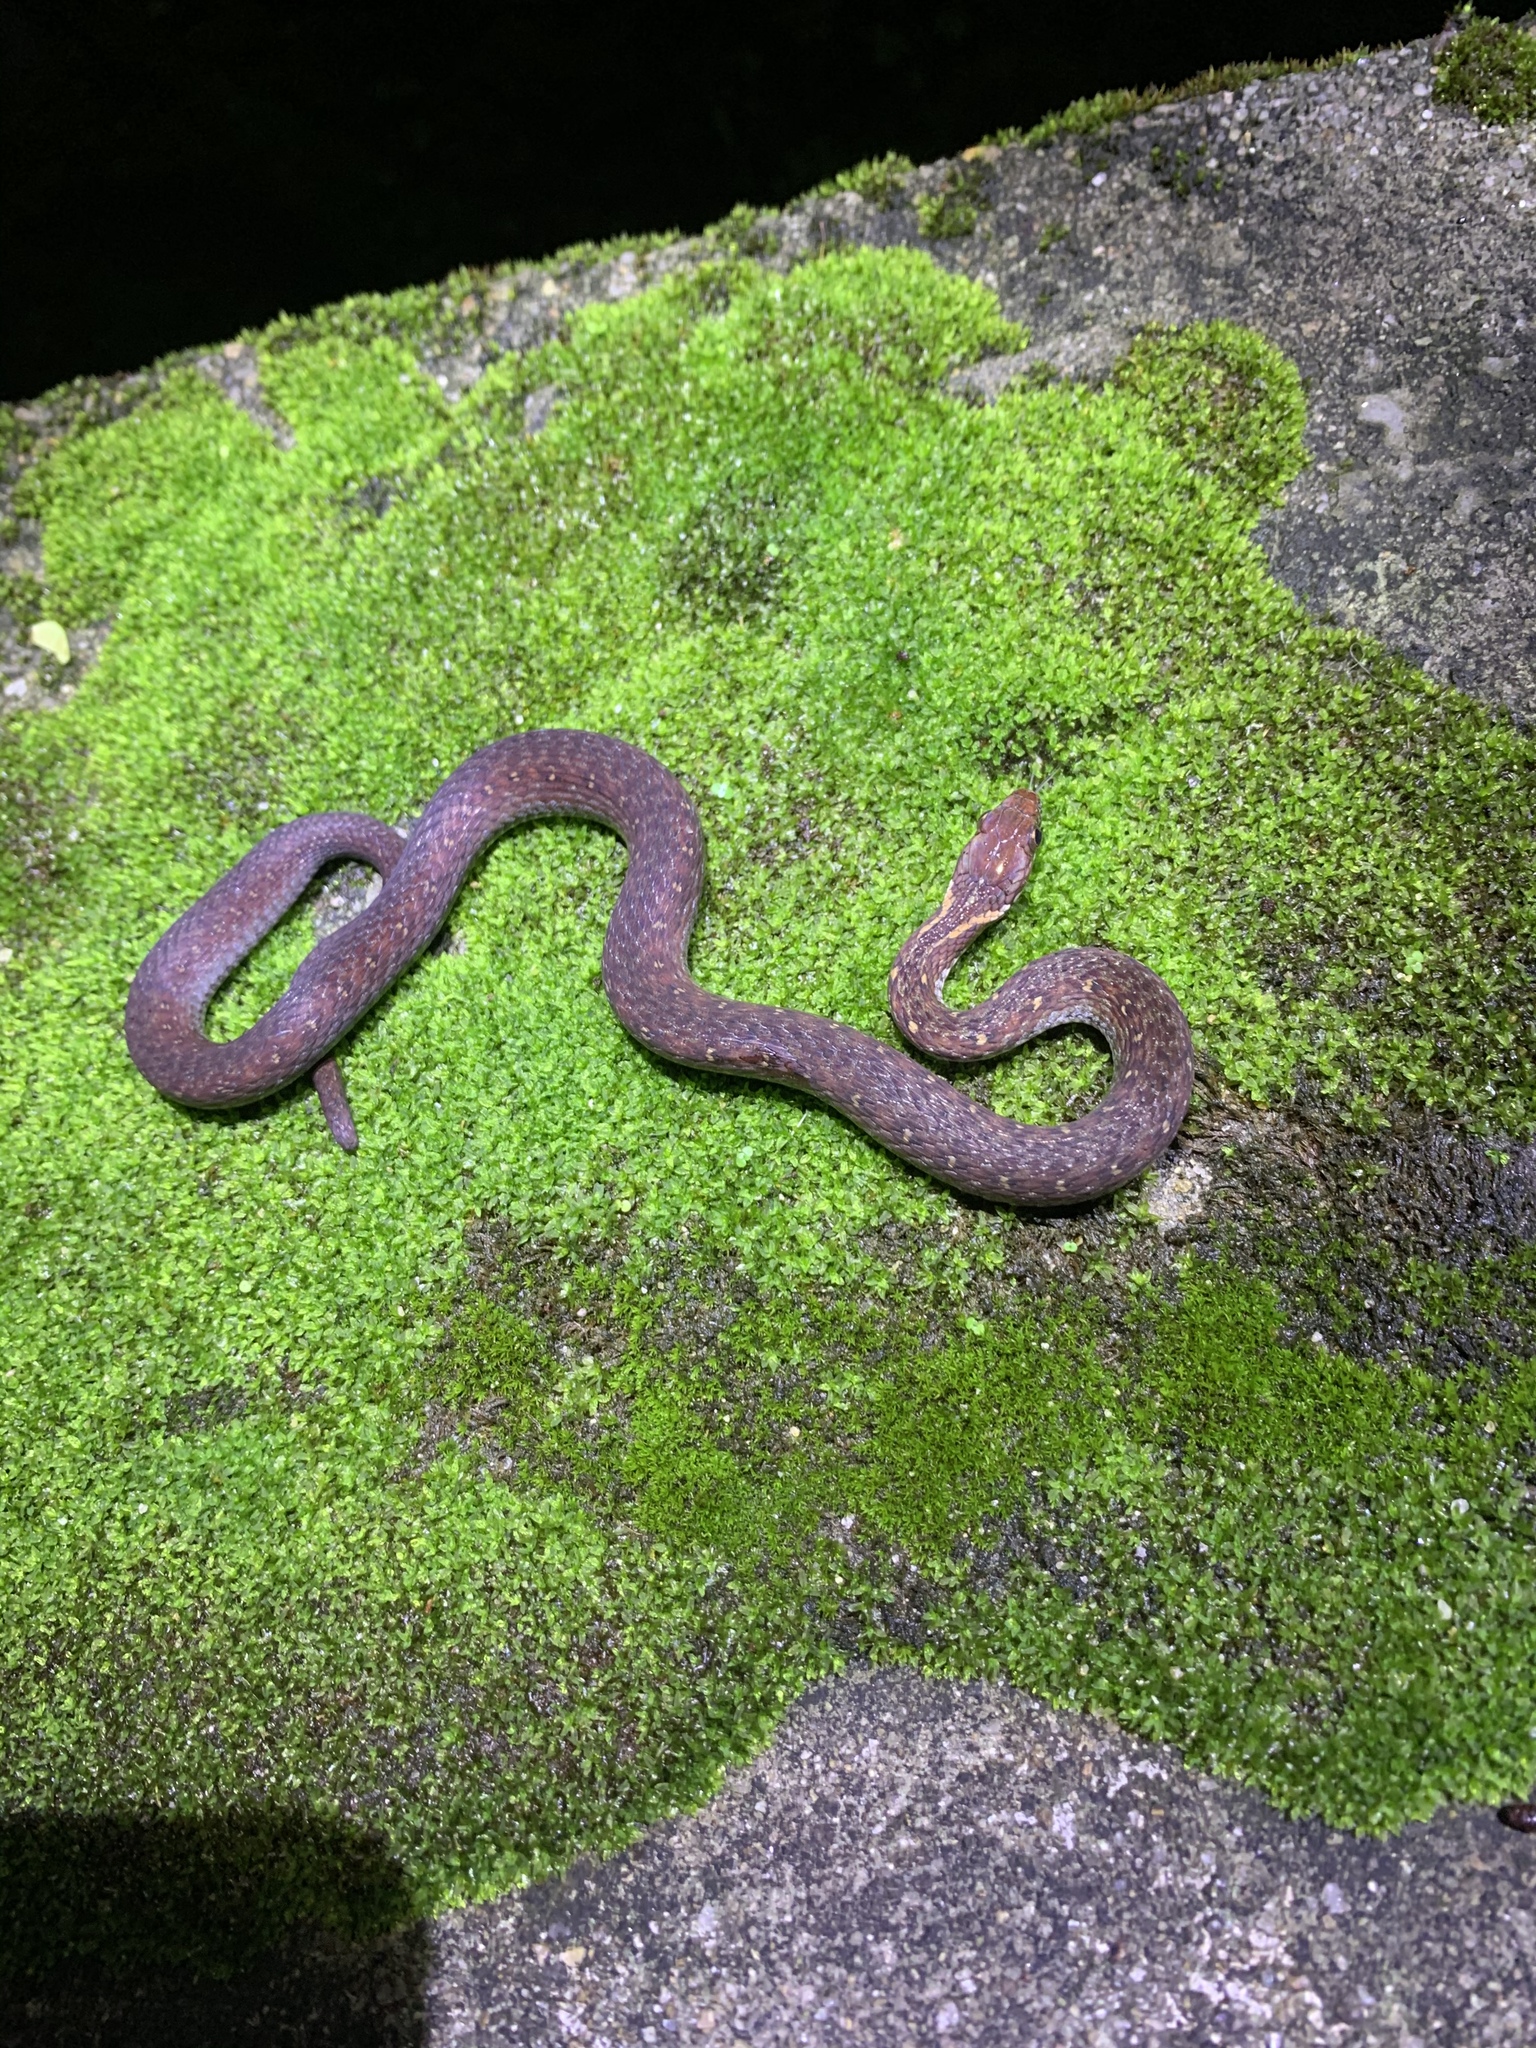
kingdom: Animalia
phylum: Chordata
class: Squamata
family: Colubridae
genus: Hebius
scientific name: Hebius sauteri
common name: Sauter's keelback
